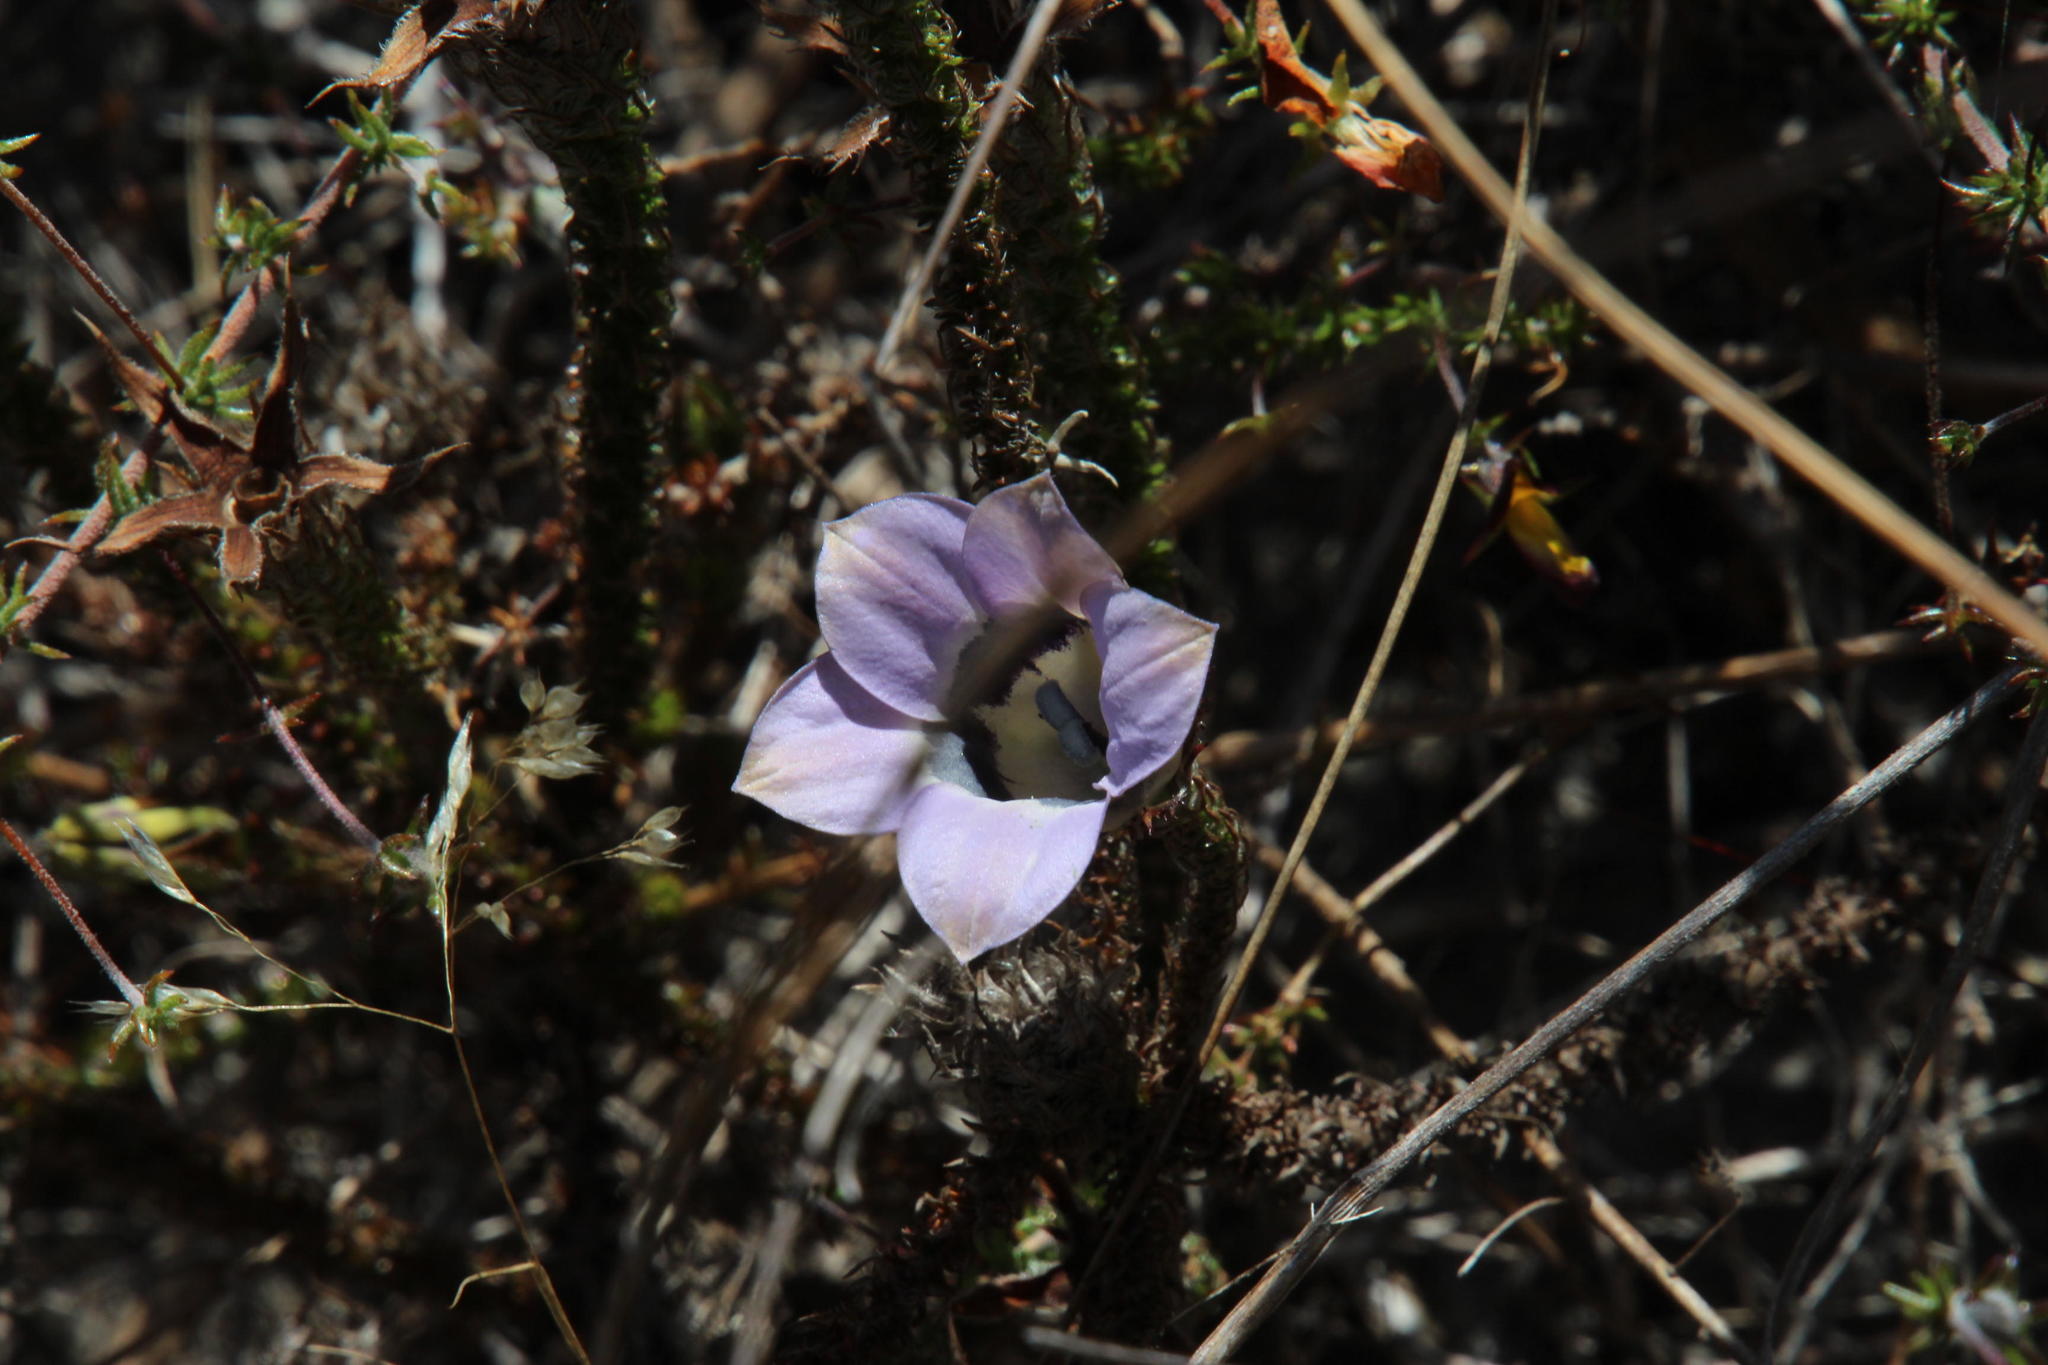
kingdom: Plantae
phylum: Tracheophyta
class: Magnoliopsida
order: Asterales
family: Campanulaceae
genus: Roella
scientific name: Roella ciliata
